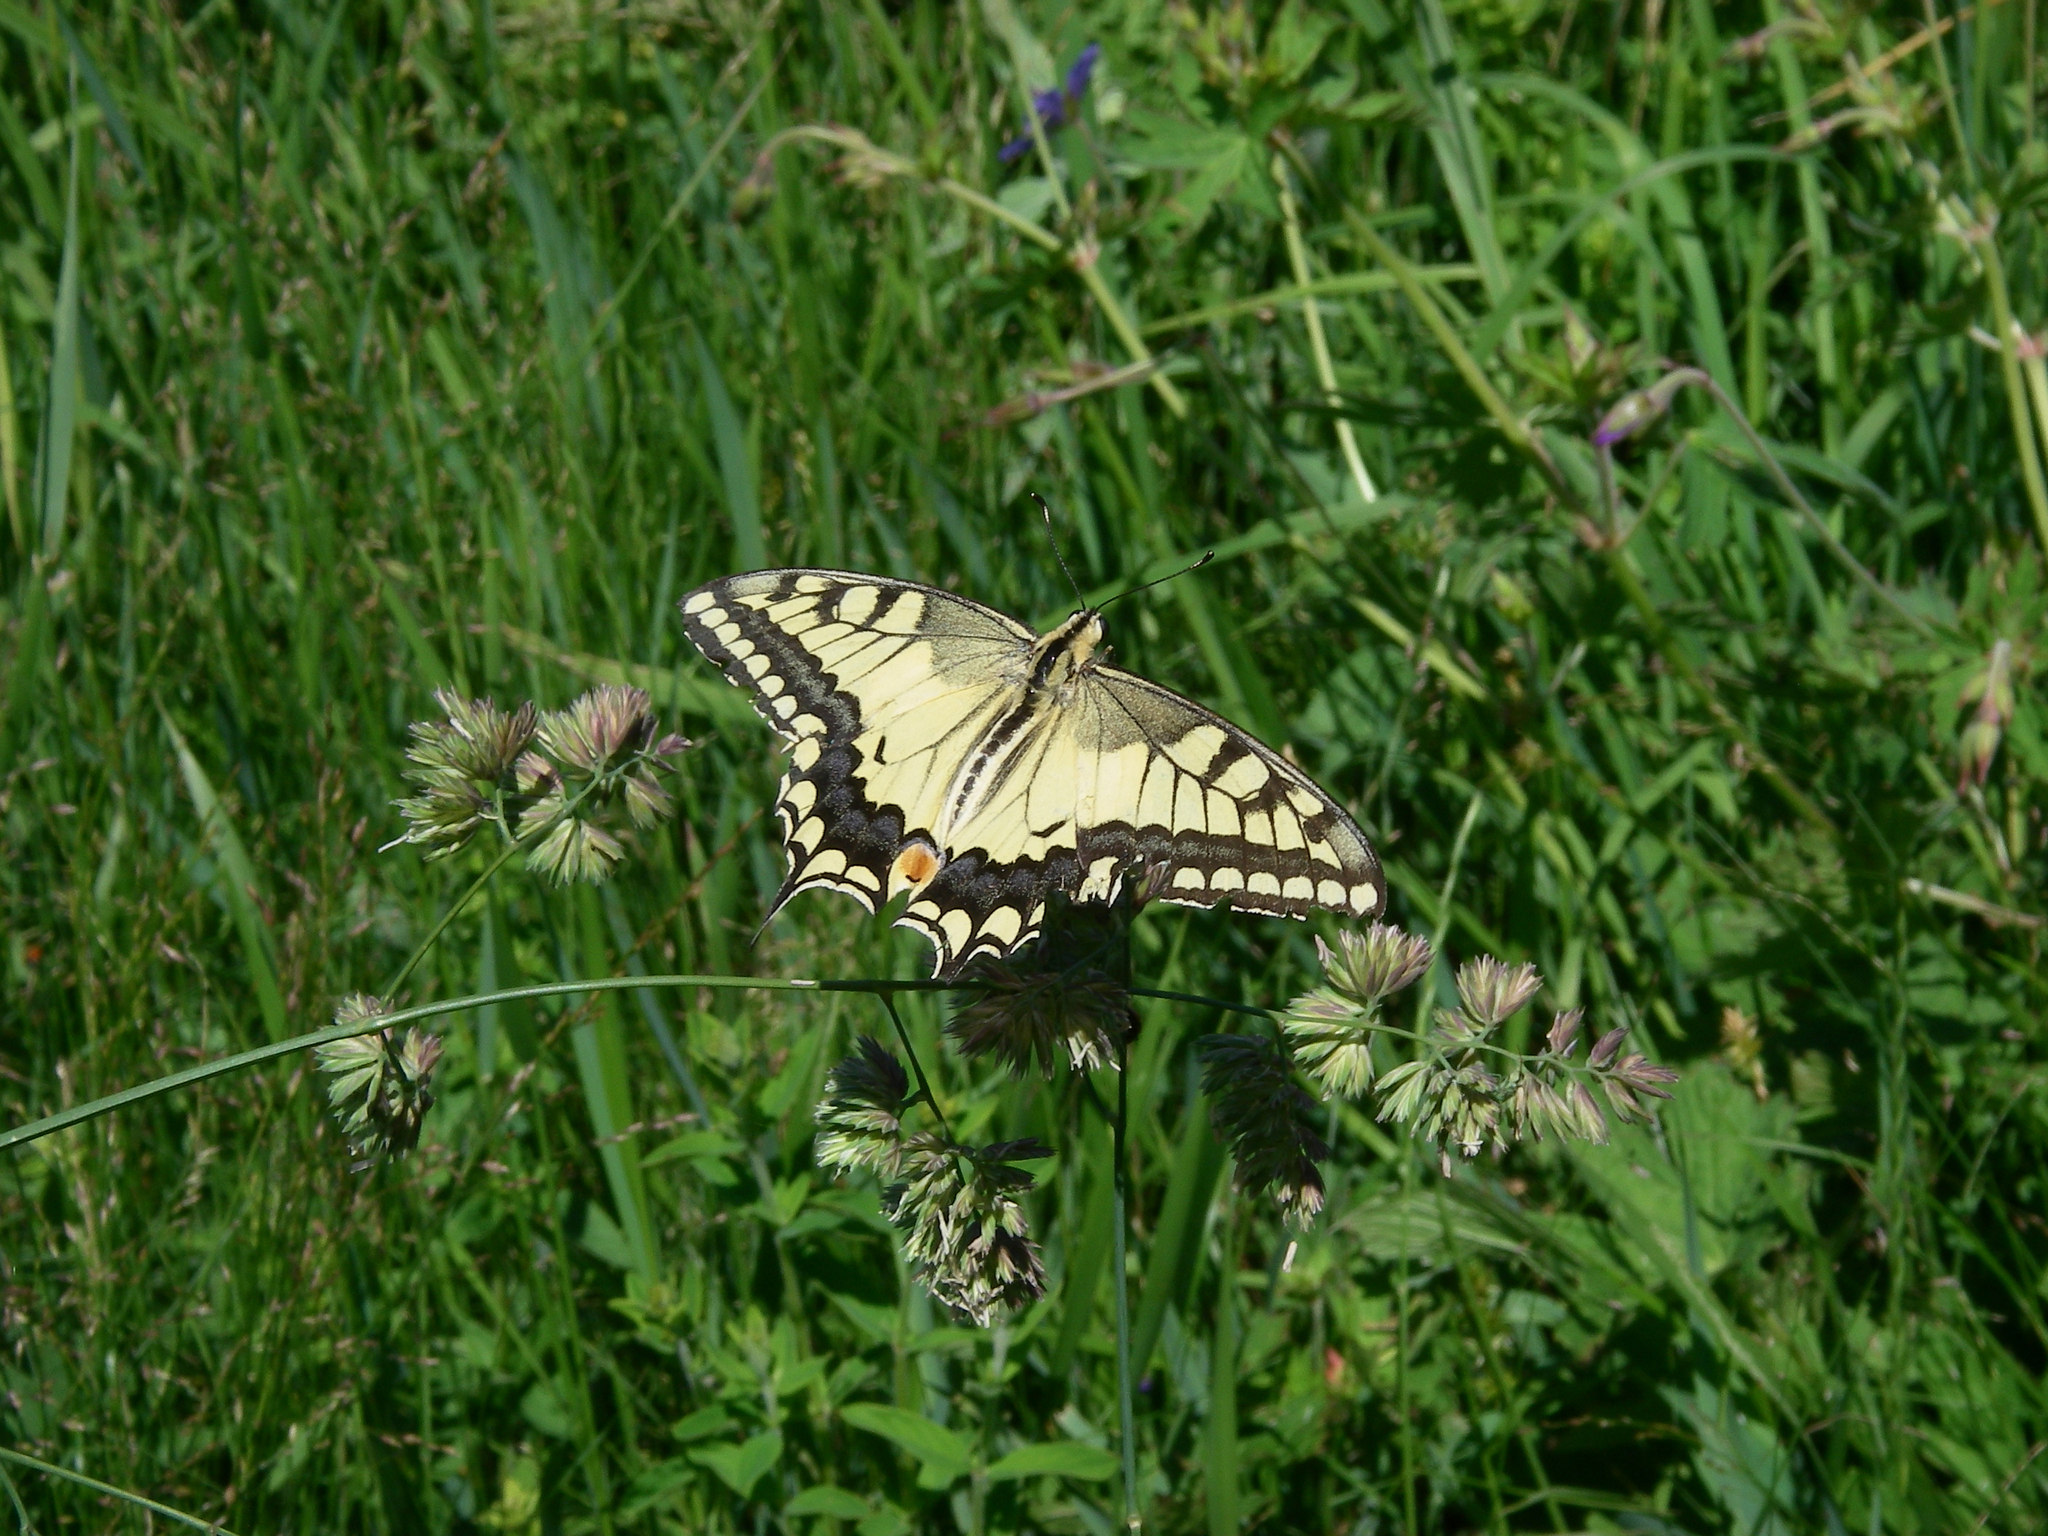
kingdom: Plantae
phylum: Tracheophyta
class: Liliopsida
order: Poales
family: Poaceae
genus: Dactylis
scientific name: Dactylis glomerata
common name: Orchardgrass
